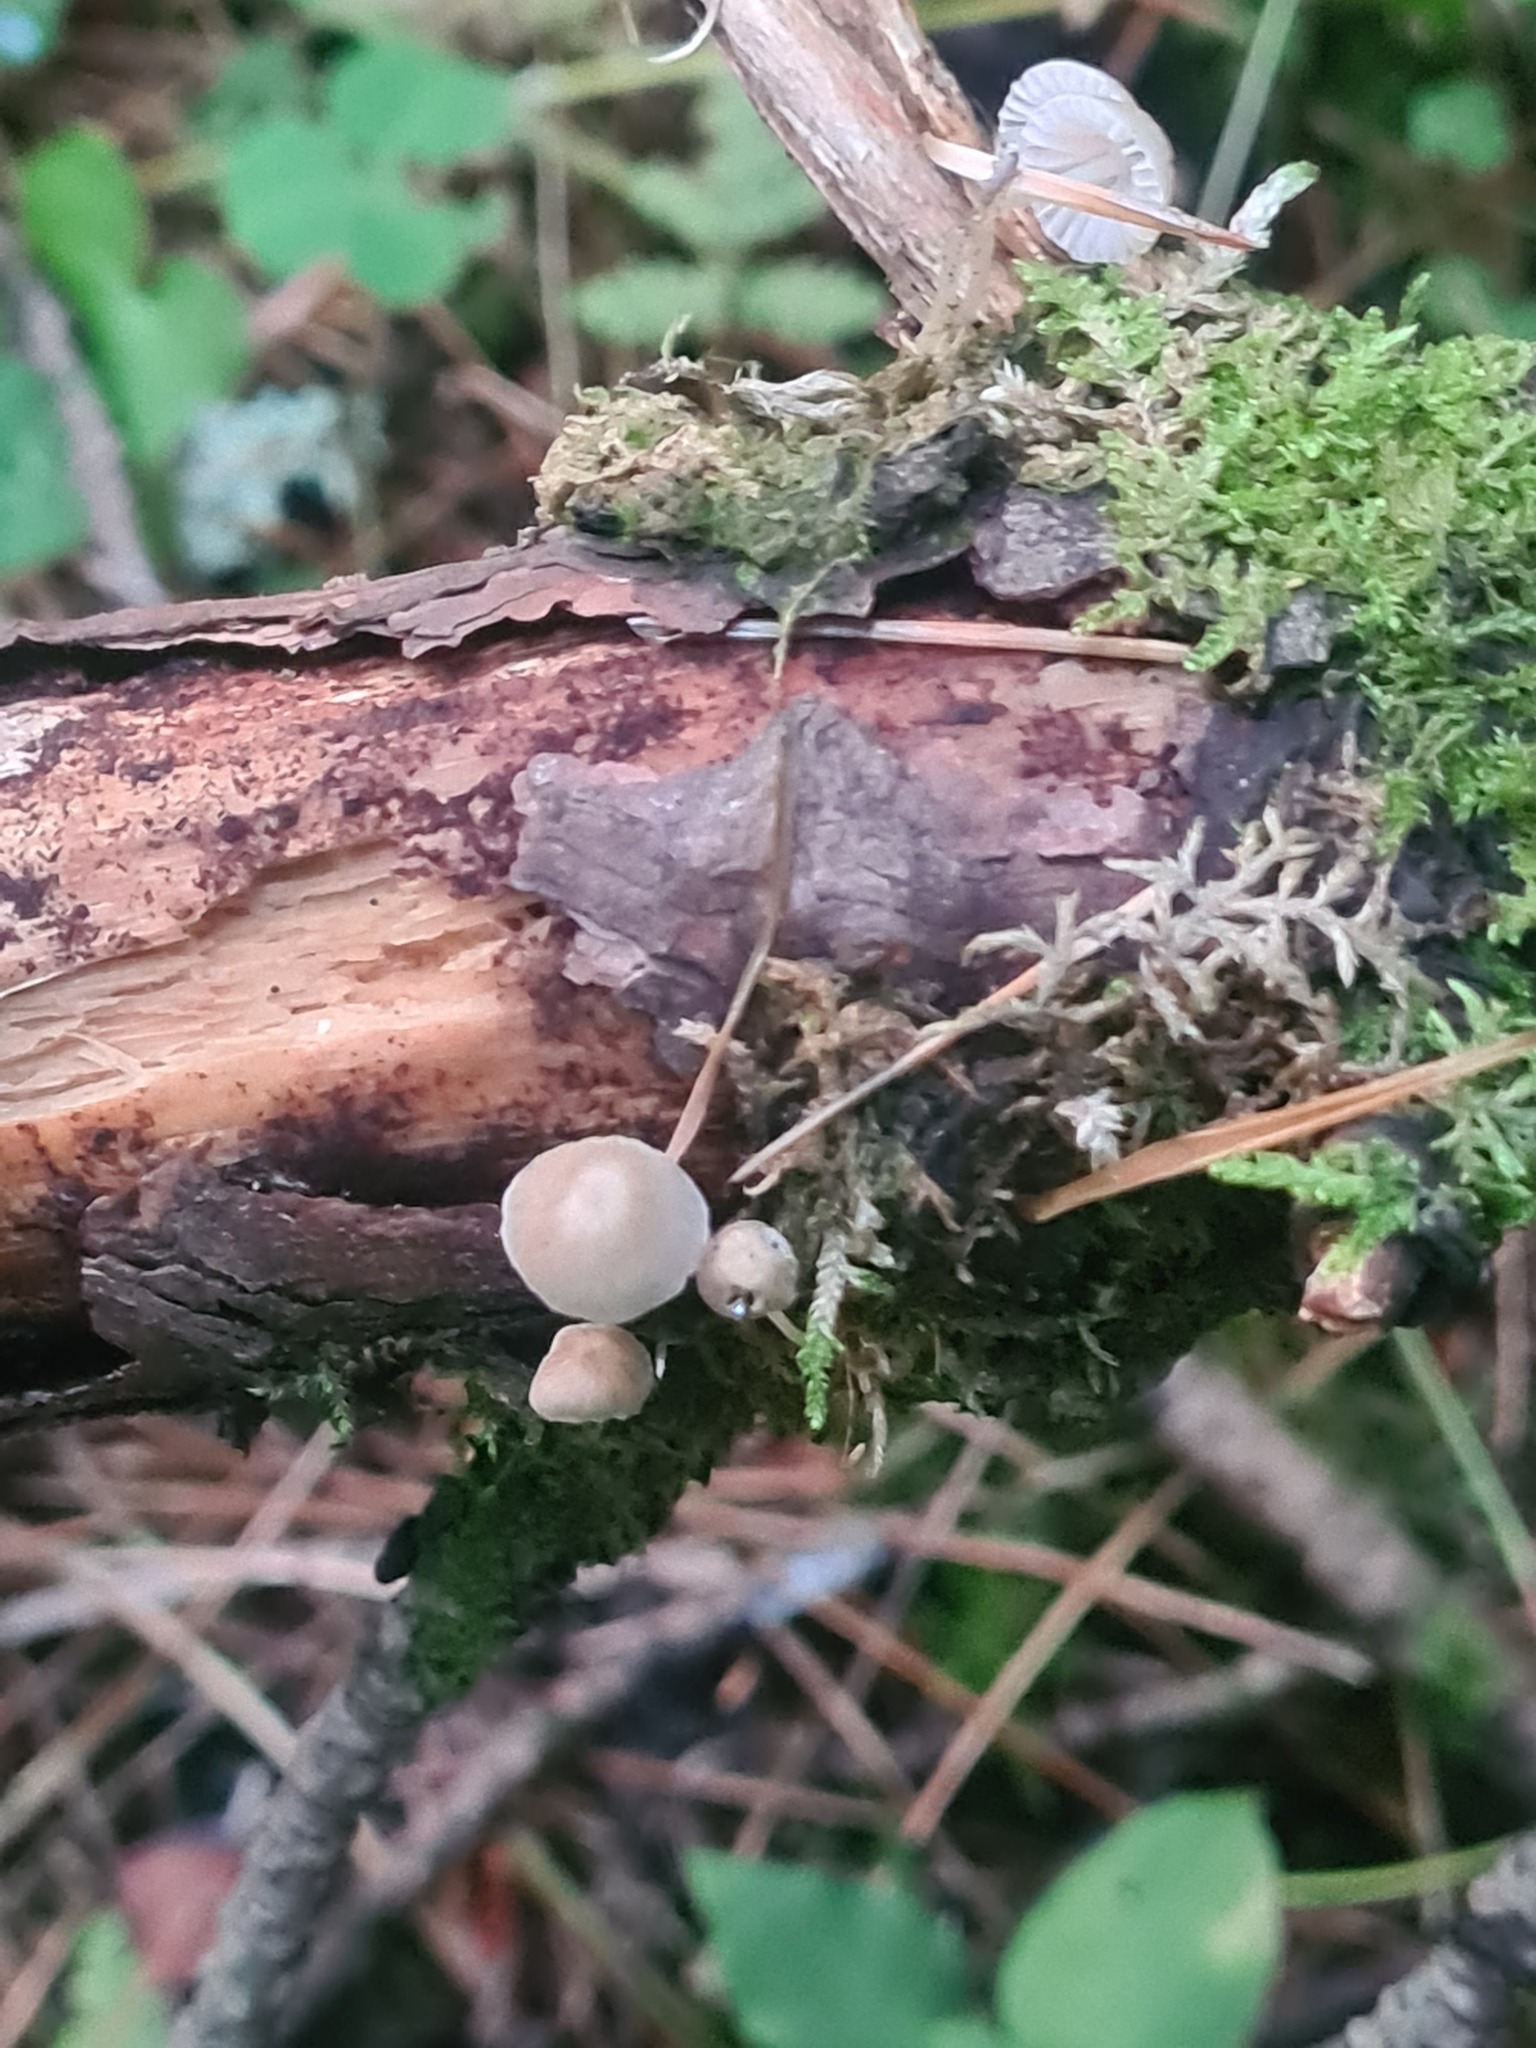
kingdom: Fungi
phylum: Basidiomycota
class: Agaricomycetes
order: Agaricales
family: Mycenaceae
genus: Mycena
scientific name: Mycena epipterygia
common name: Yellowleg bonnet
